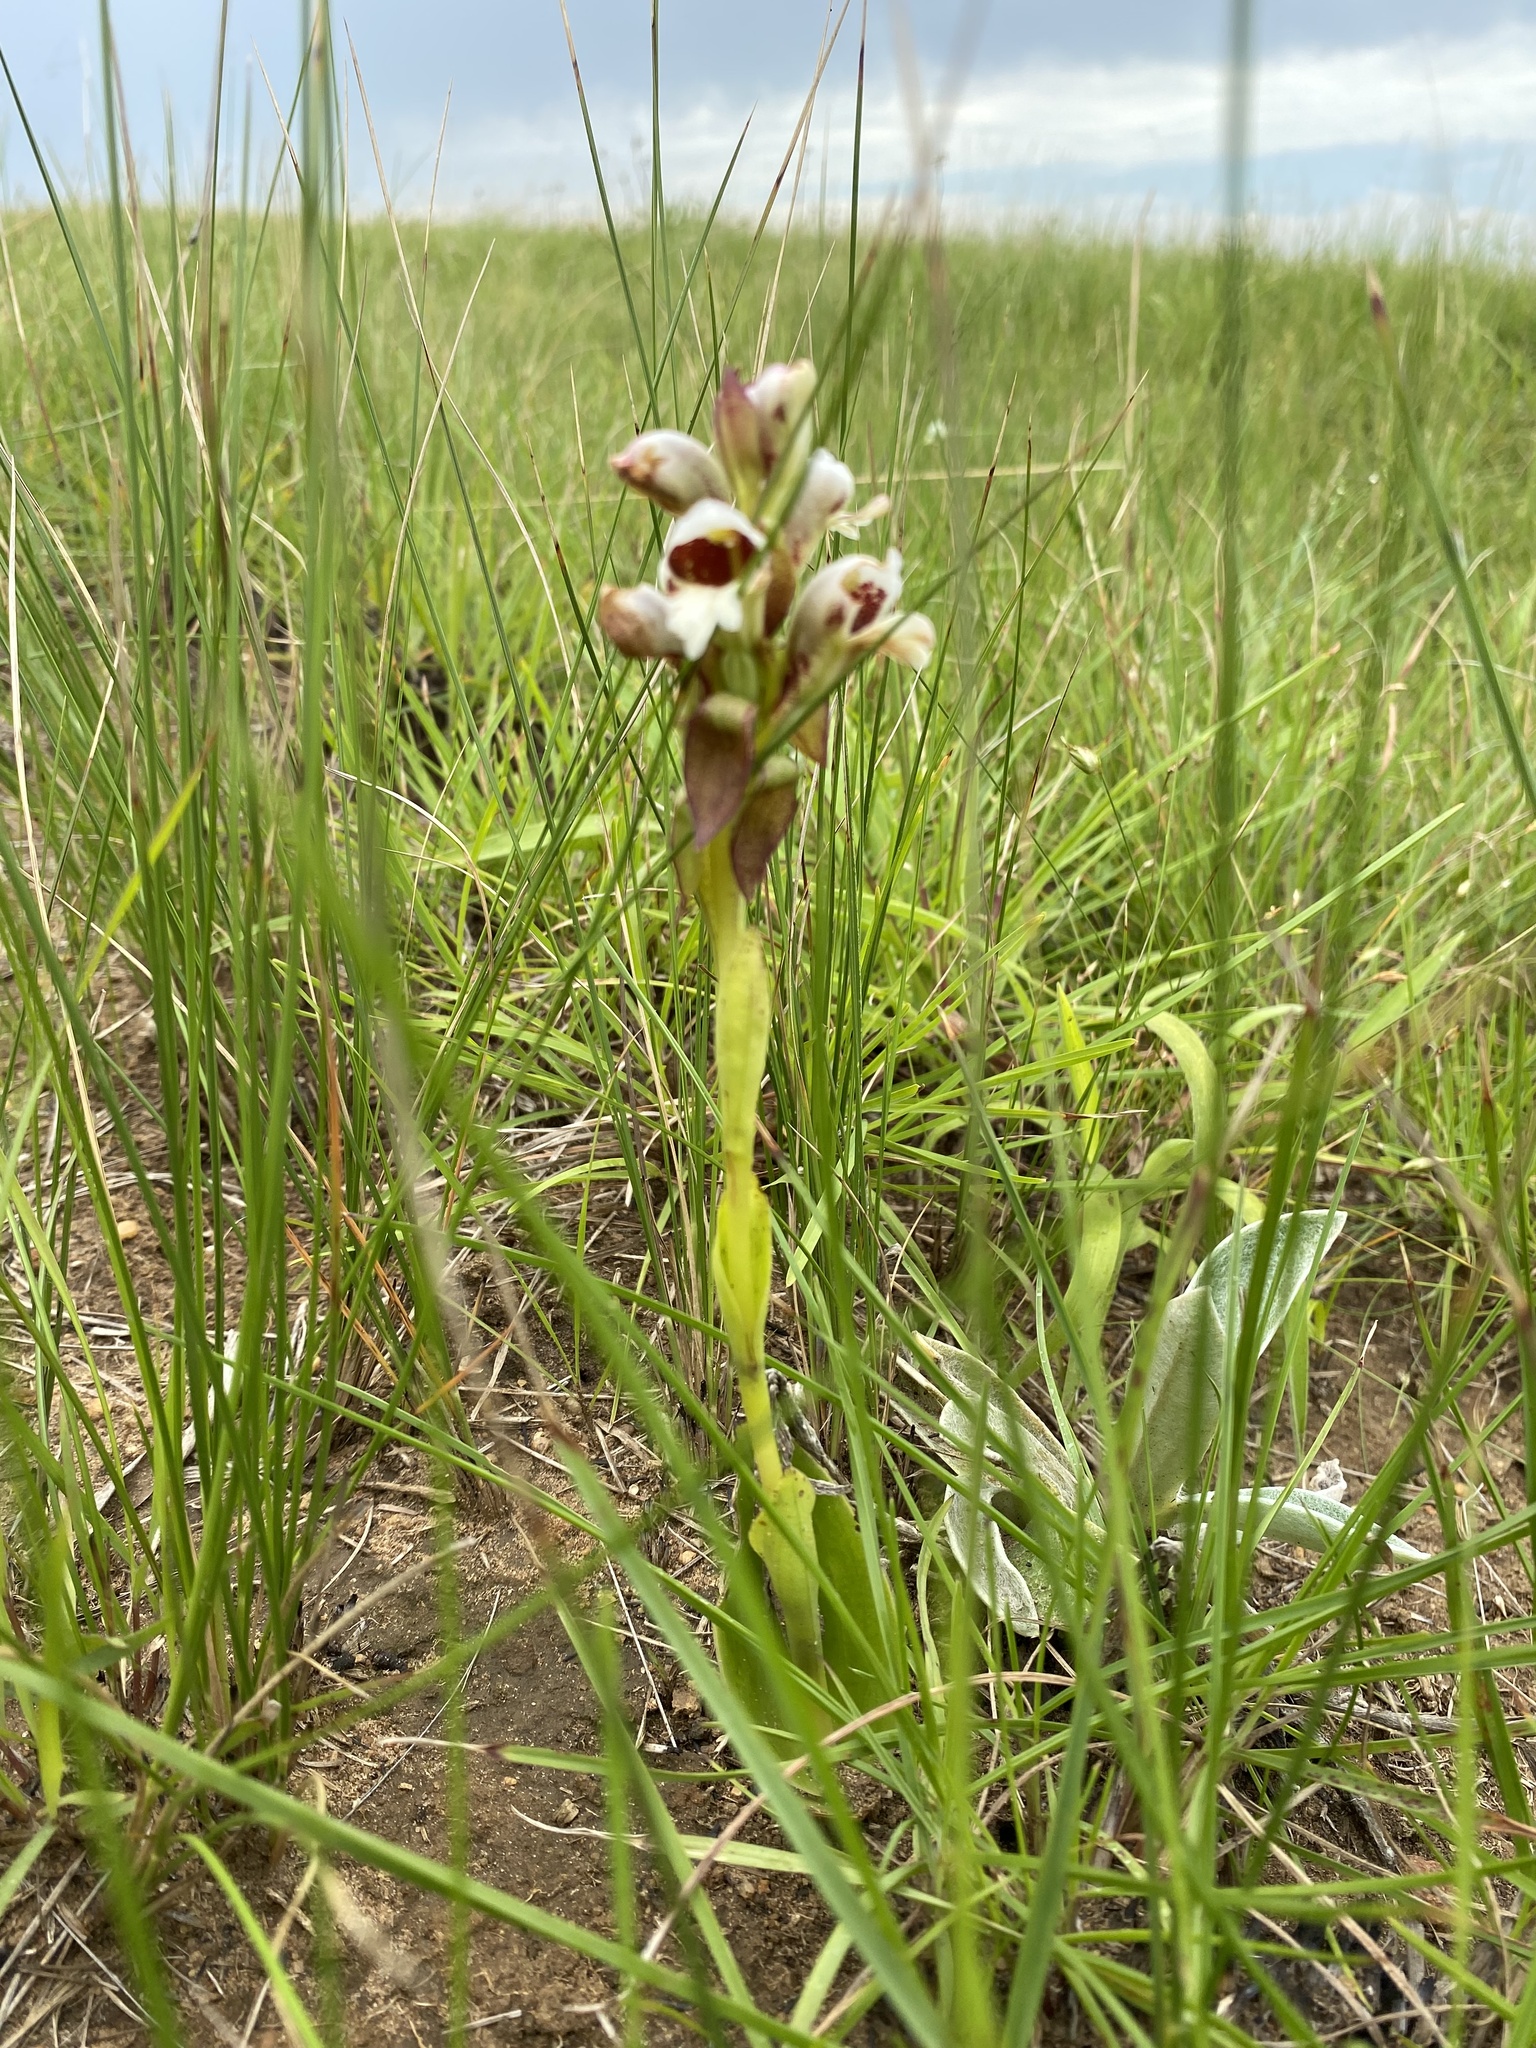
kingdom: Plantae
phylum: Tracheophyta
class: Liliopsida
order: Asparagales
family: Orchidaceae
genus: Satyrium
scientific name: Satyrium sphaerocarpum
